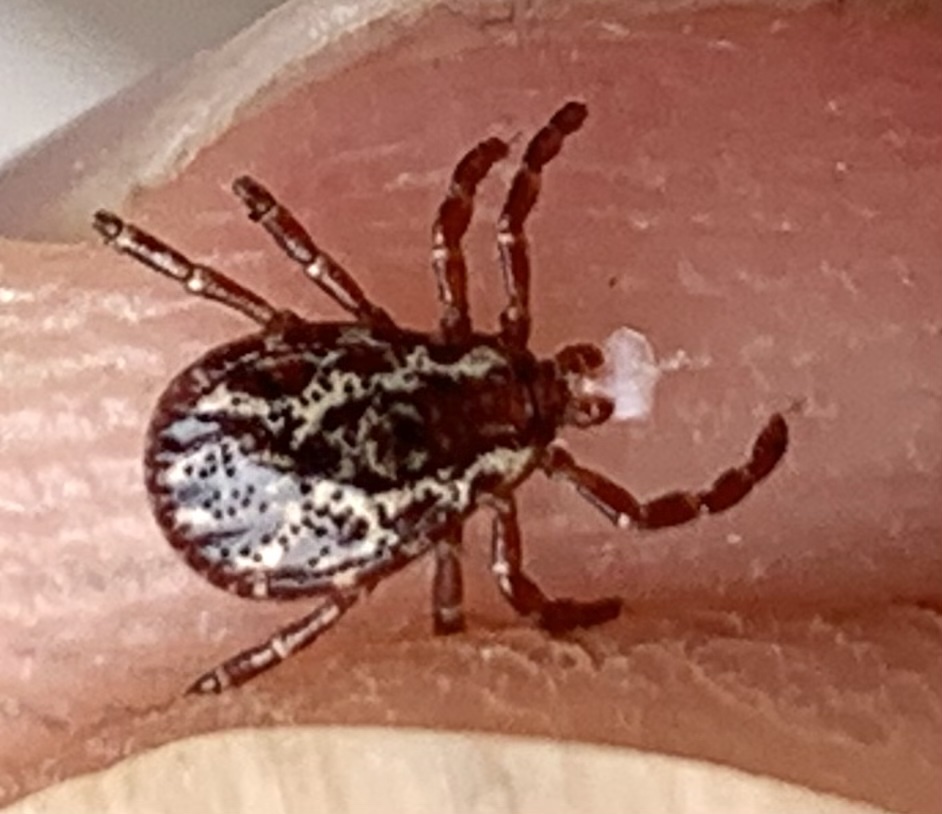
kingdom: Animalia
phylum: Arthropoda
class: Arachnida
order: Ixodida
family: Ixodidae
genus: Dermacentor
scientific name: Dermacentor variabilis
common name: American dog tick
